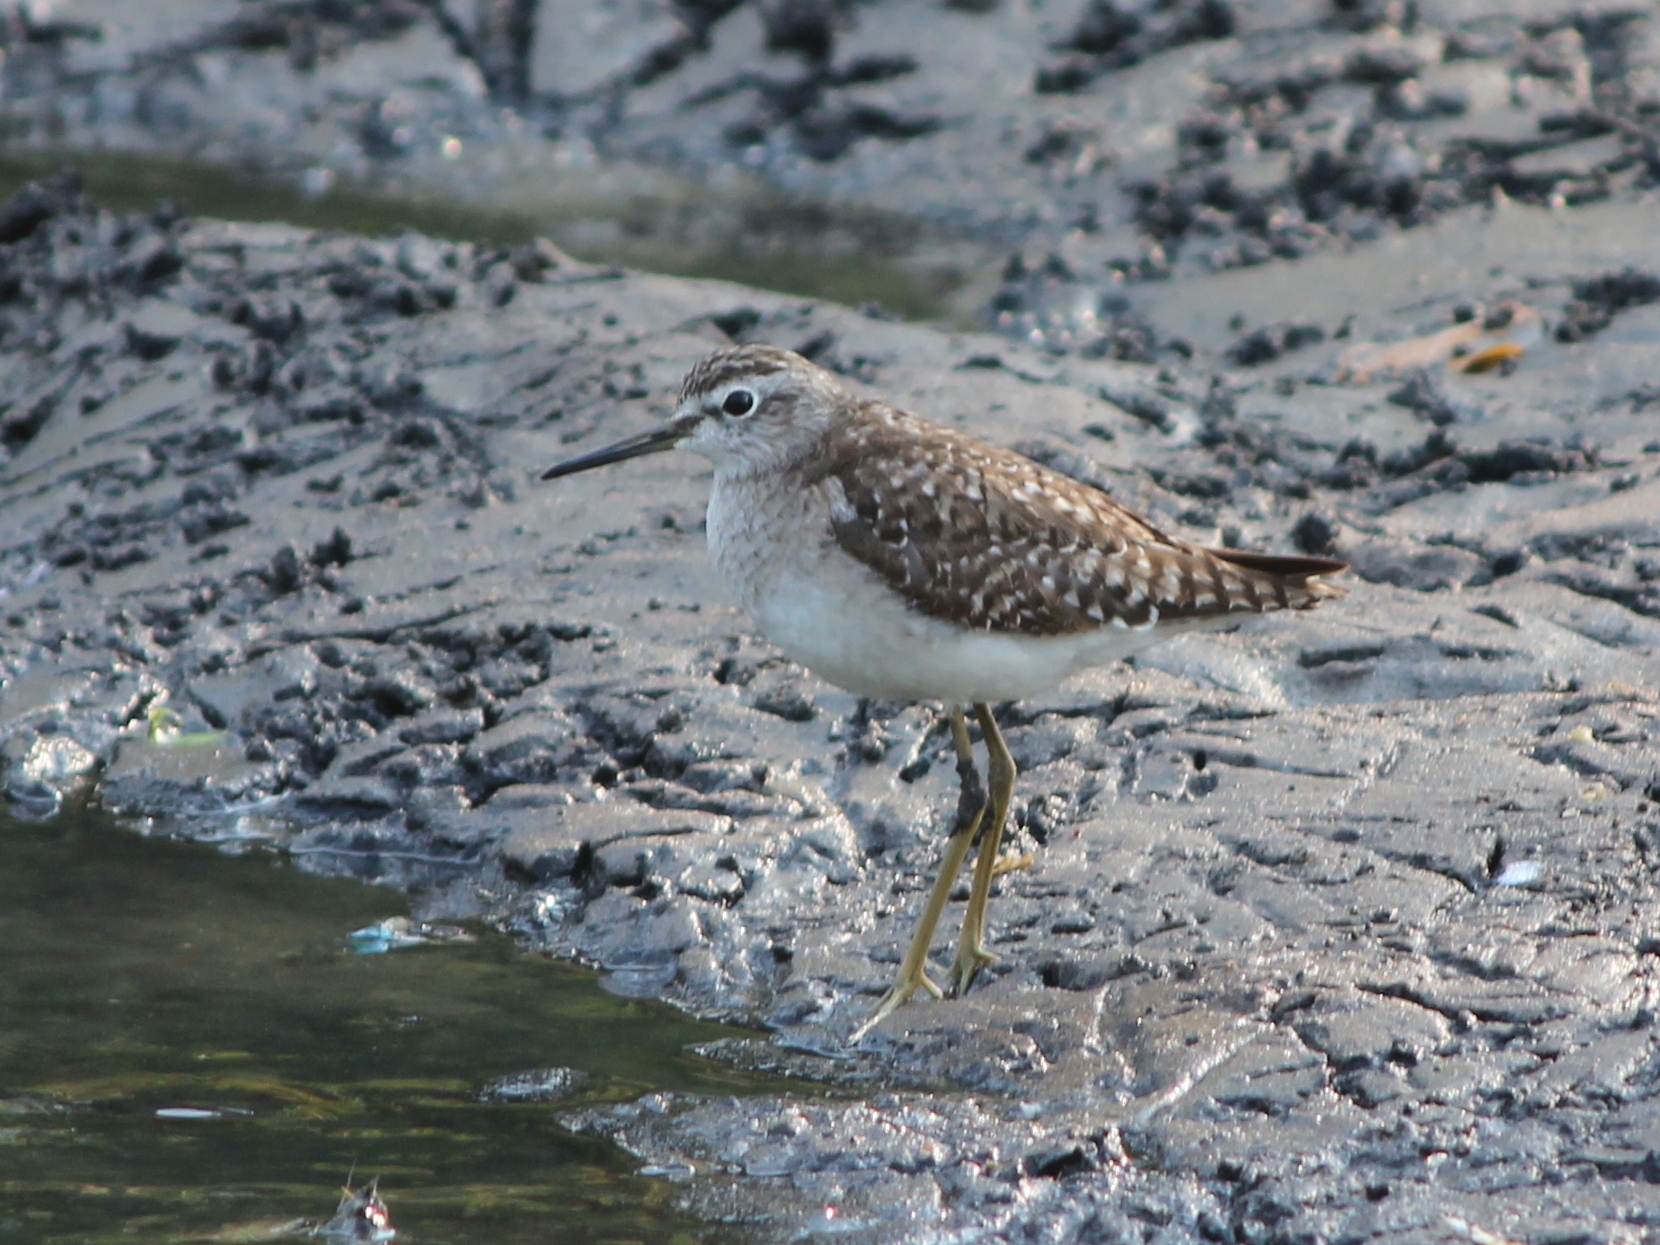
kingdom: Animalia
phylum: Chordata
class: Aves
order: Charadriiformes
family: Scolopacidae
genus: Tringa
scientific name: Tringa glareola
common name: Wood sandpiper
